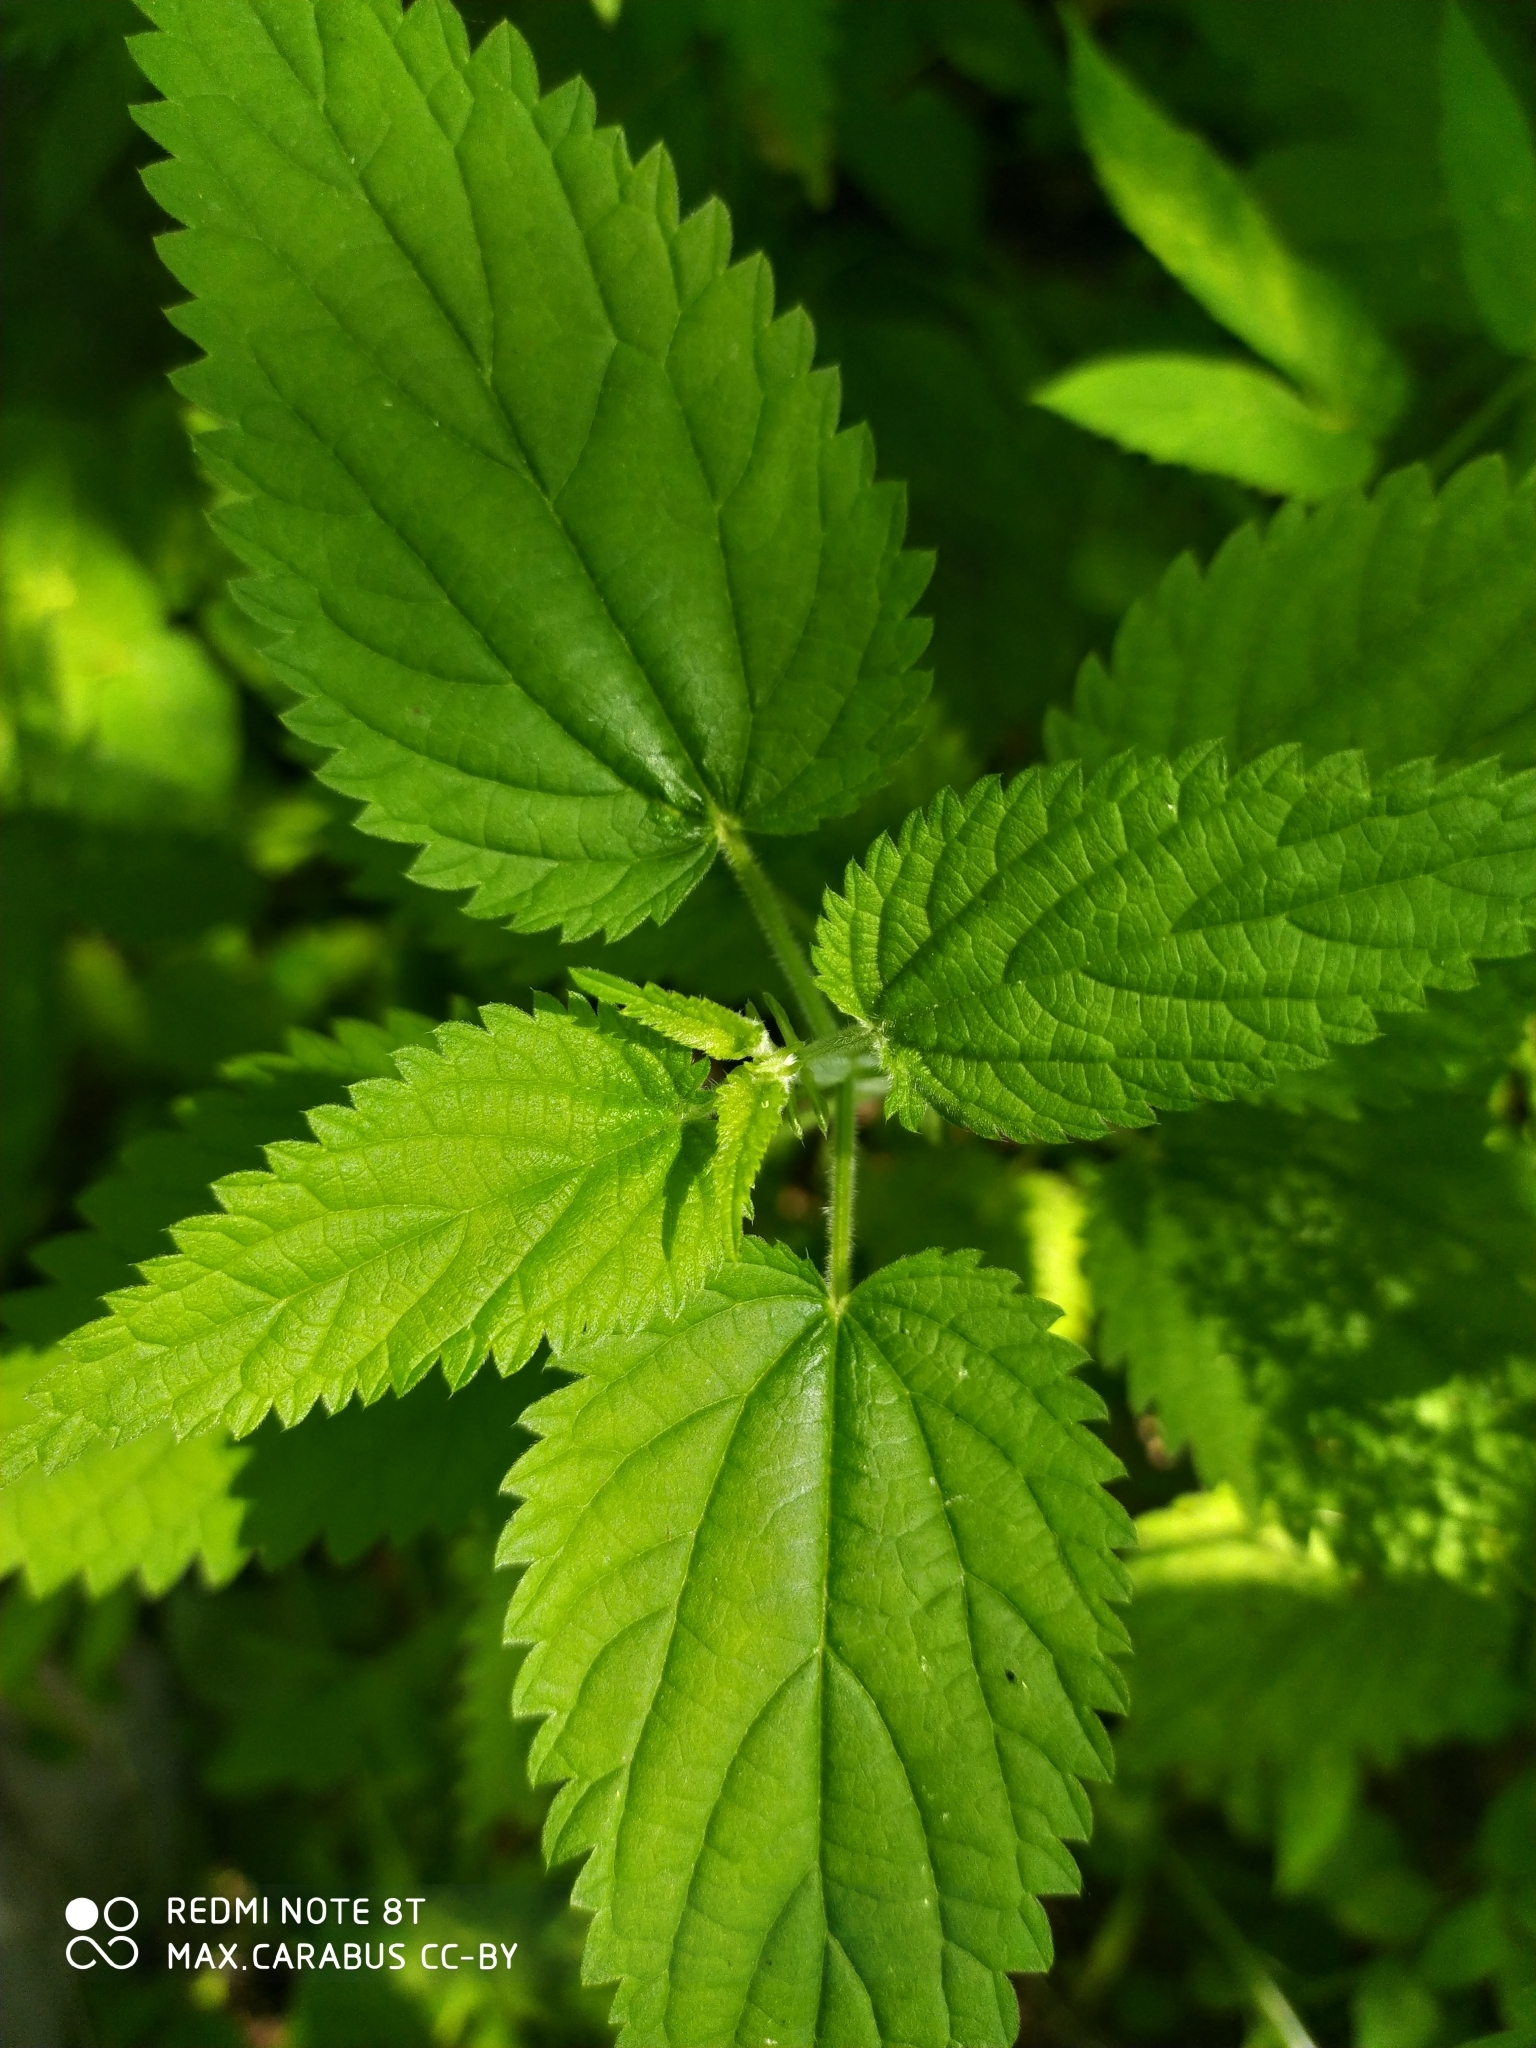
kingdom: Plantae
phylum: Tracheophyta
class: Magnoliopsida
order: Rosales
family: Urticaceae
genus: Urtica
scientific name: Urtica dioica
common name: Common nettle
